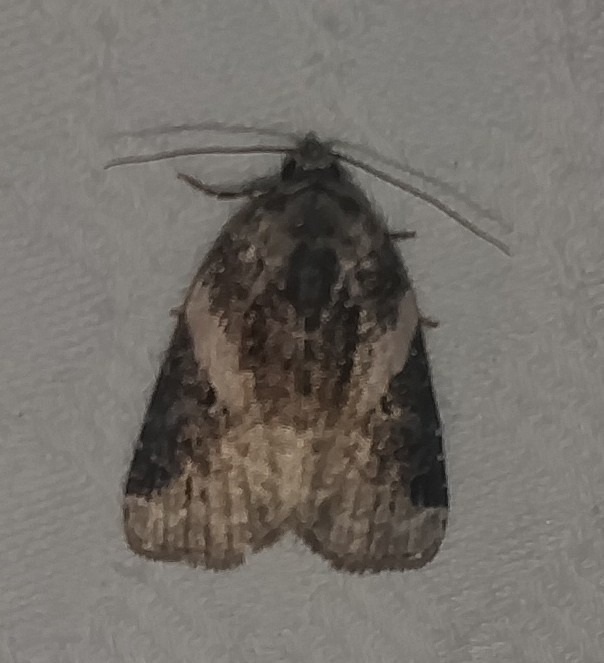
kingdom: Animalia
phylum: Arthropoda
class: Insecta
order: Lepidoptera
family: Noctuidae
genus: Pseudeustrotia
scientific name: Pseudeustrotia carneola
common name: Pink-barred lithacodia moth
